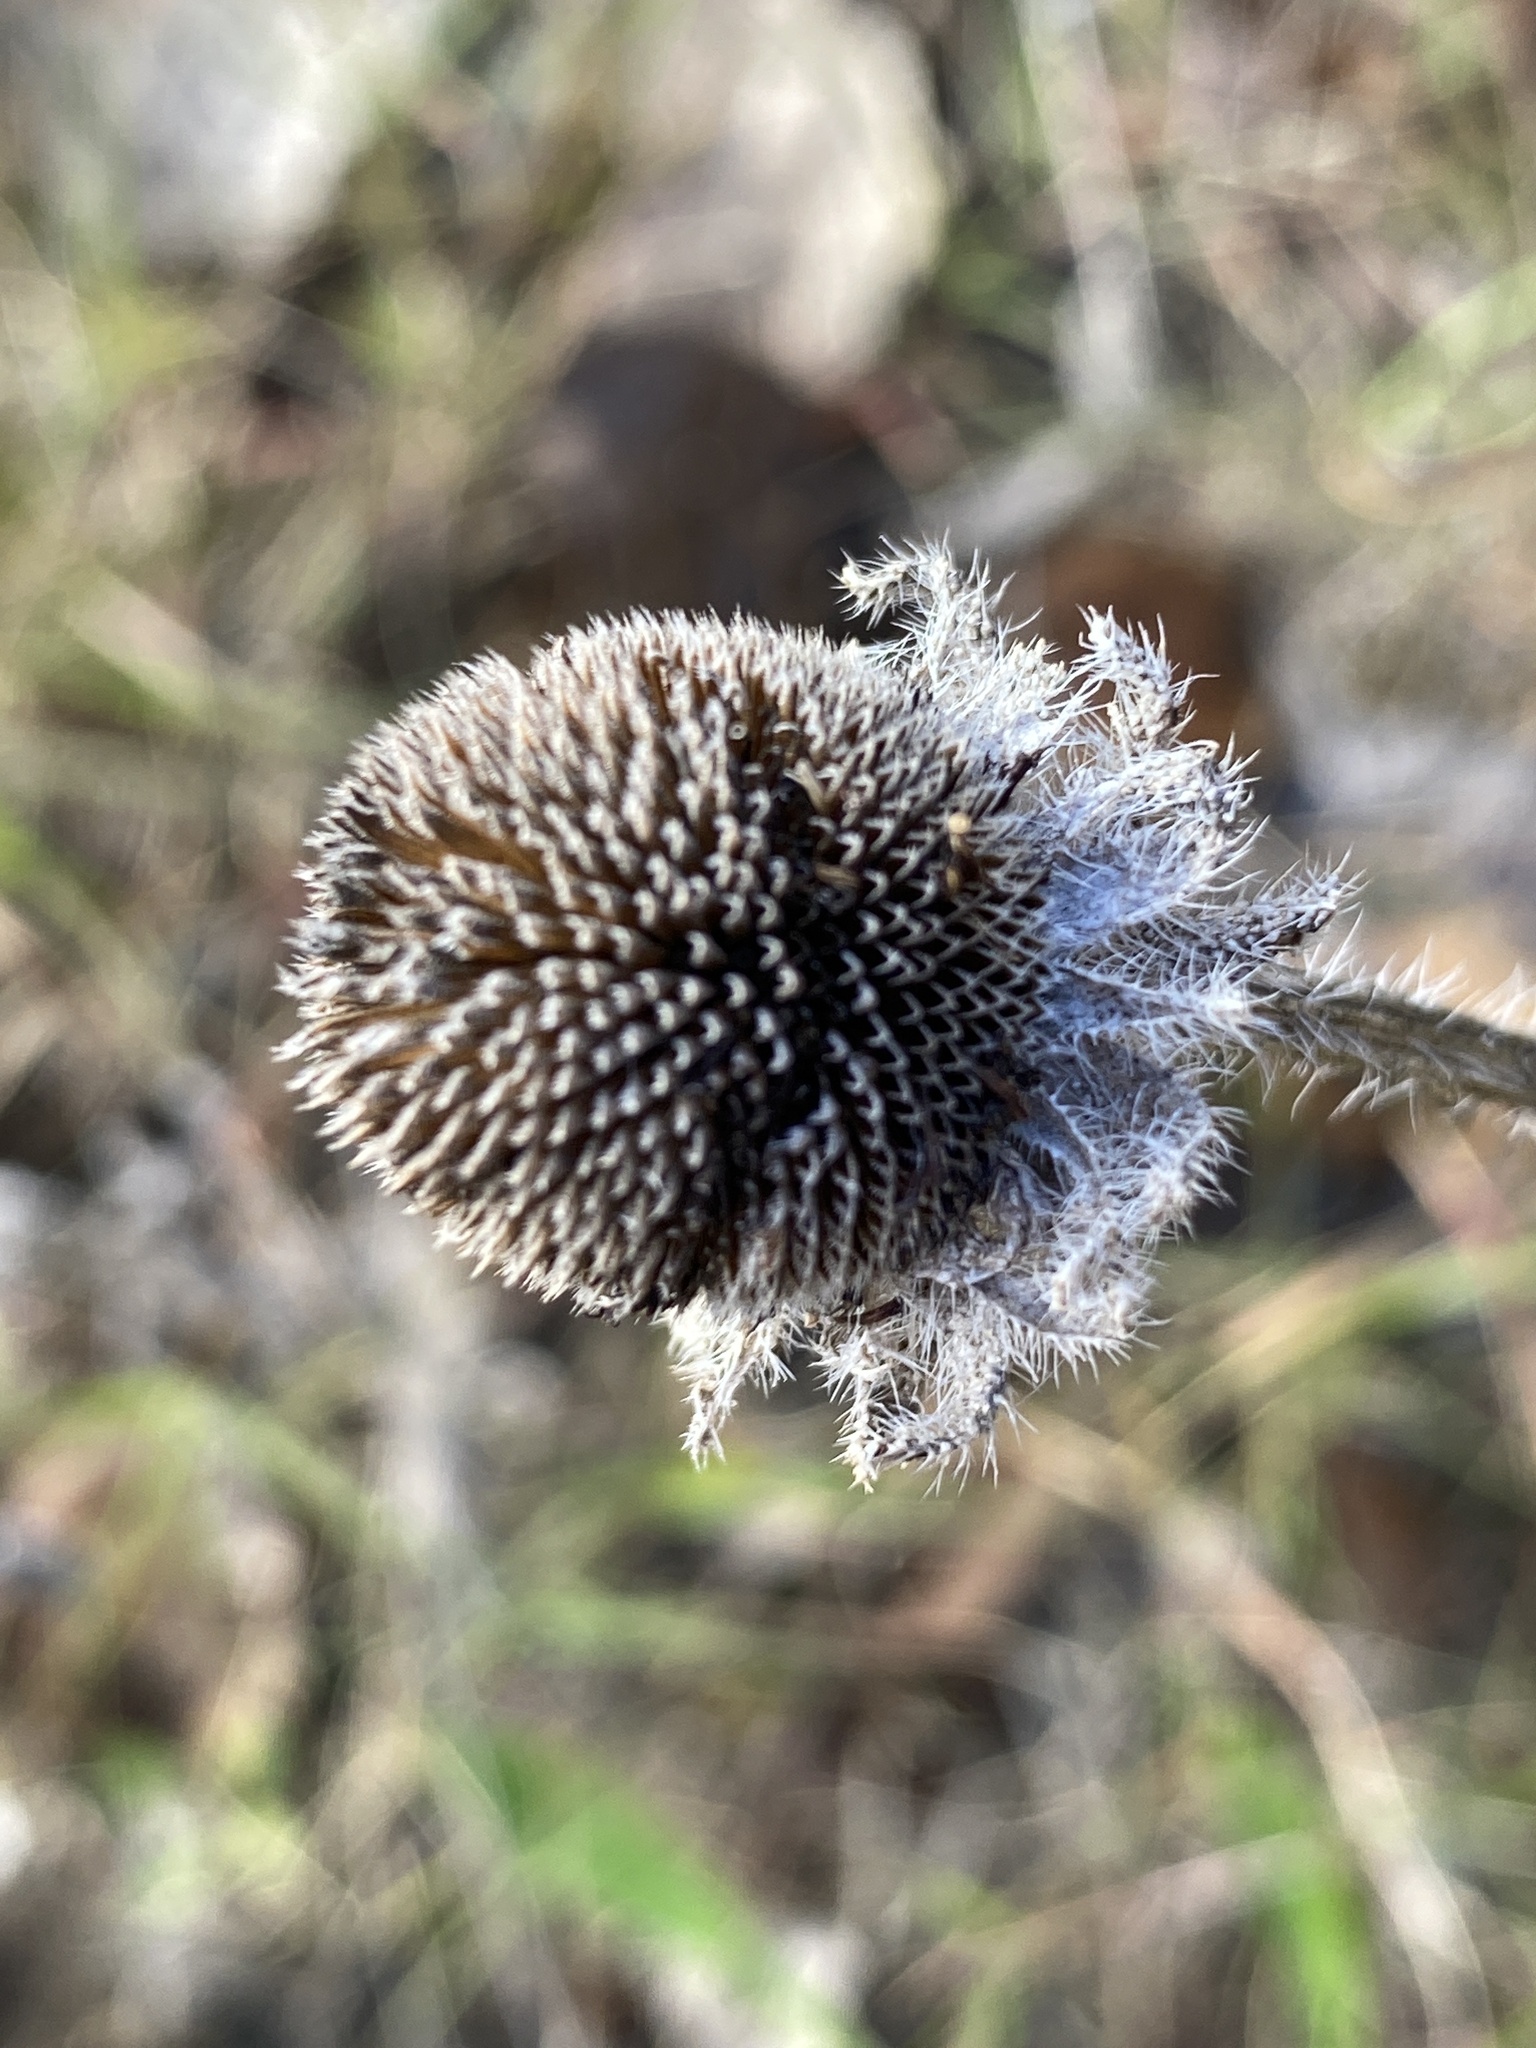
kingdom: Plantae
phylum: Tracheophyta
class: Magnoliopsida
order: Asterales
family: Asteraceae
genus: Rudbeckia
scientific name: Rudbeckia hirta
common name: Black-eyed-susan
